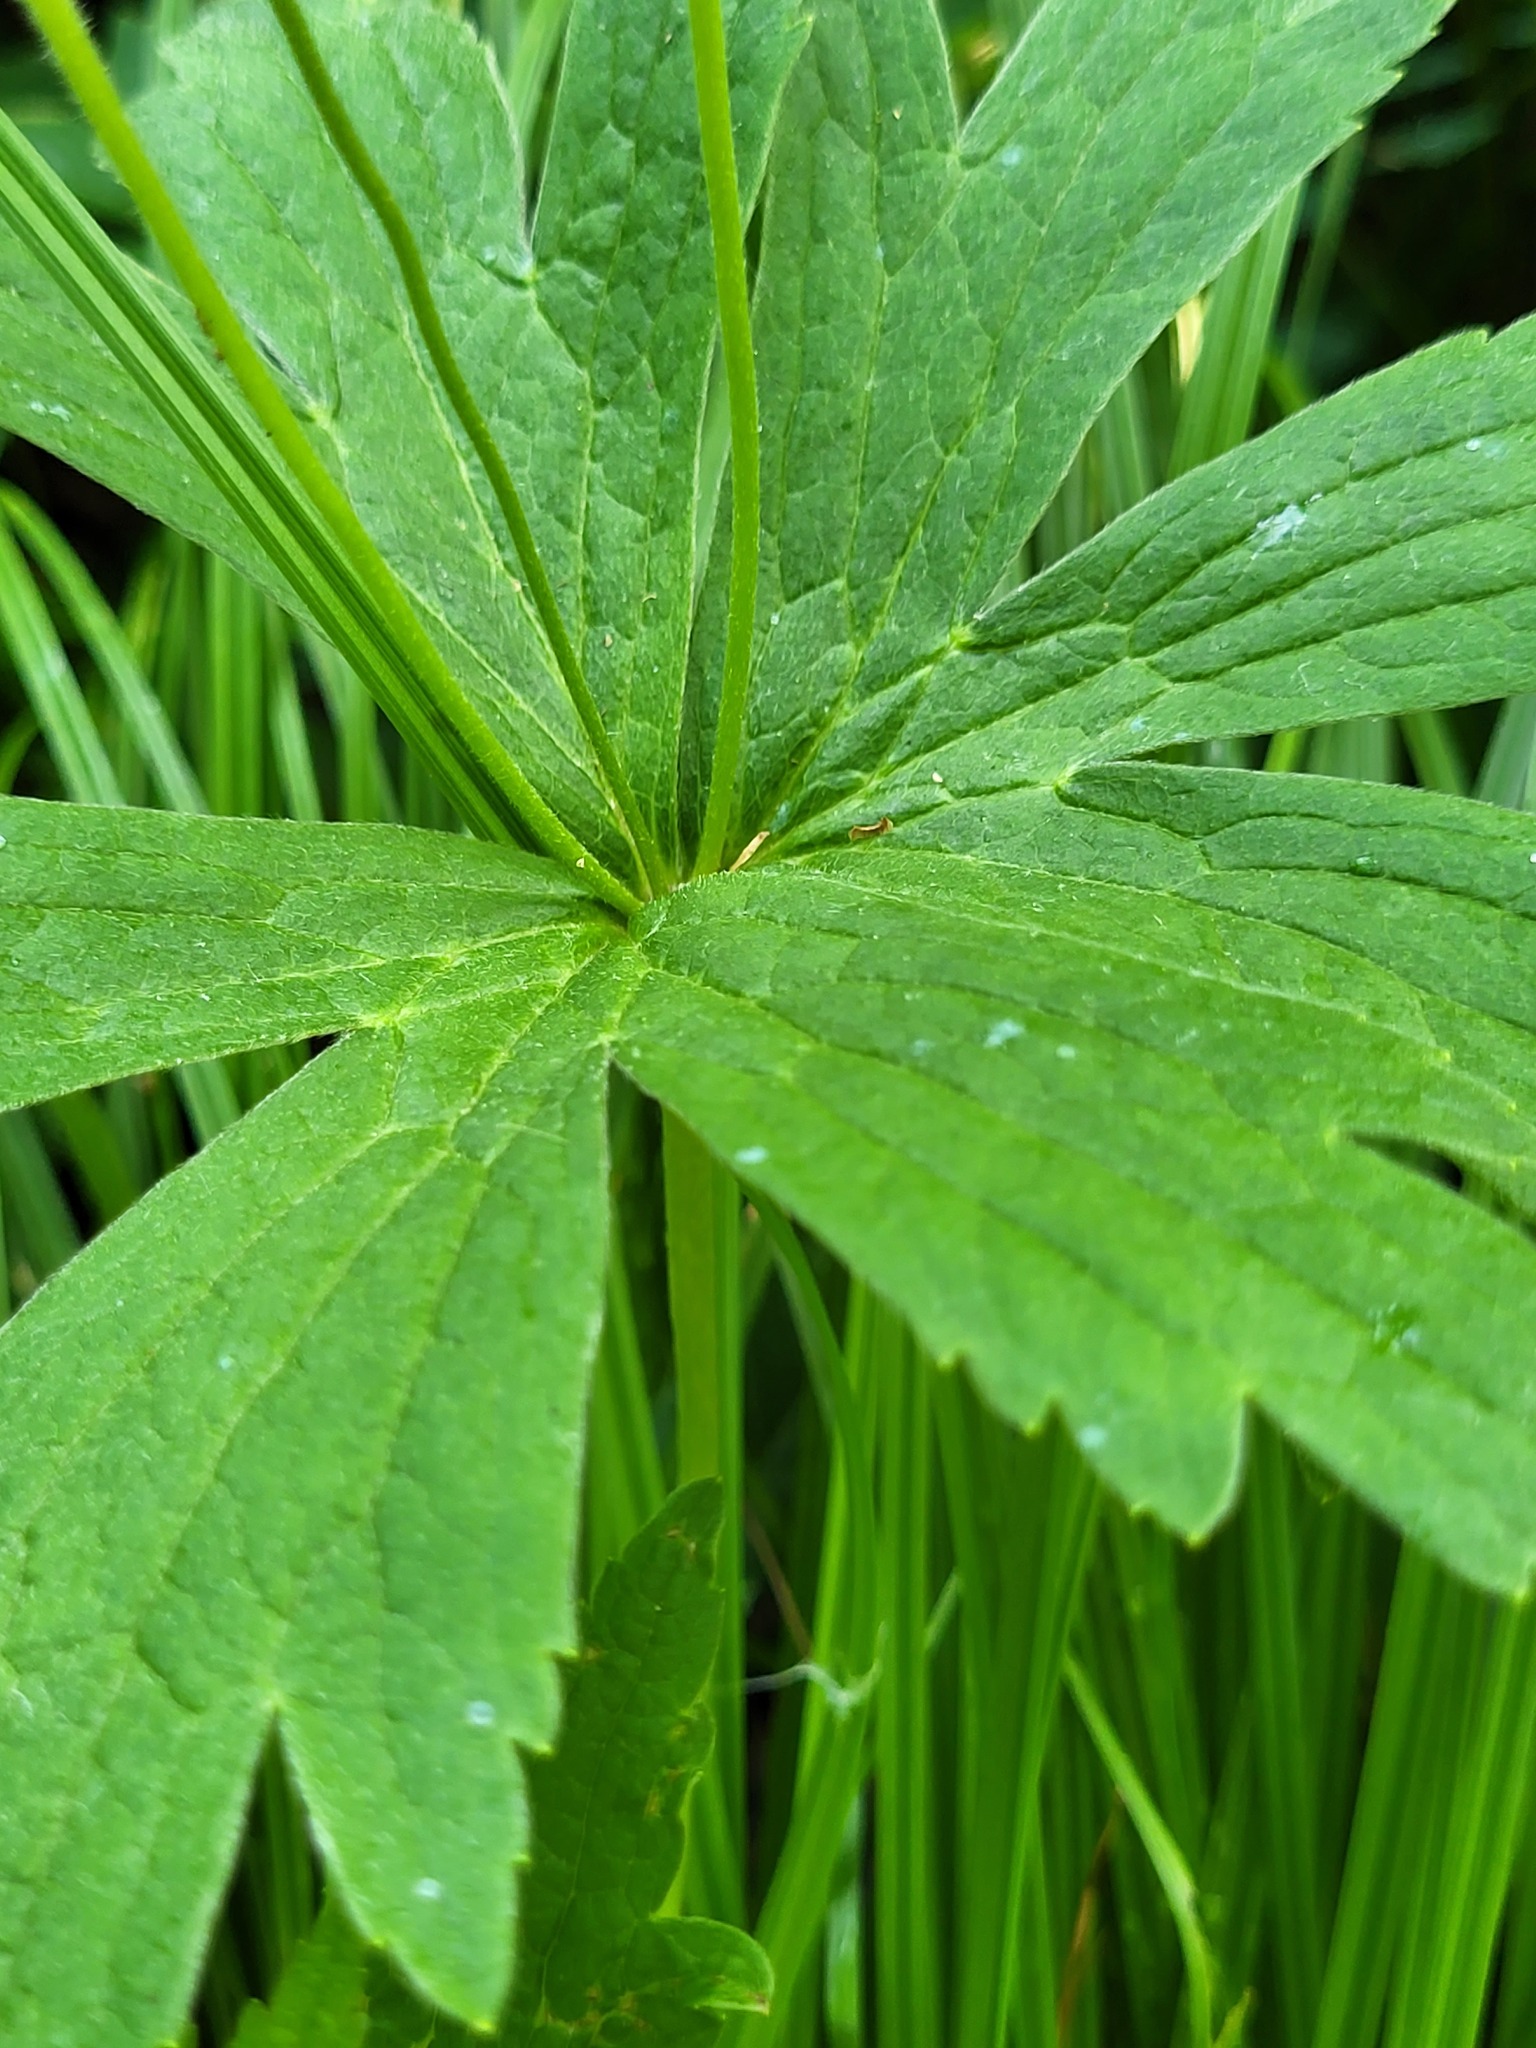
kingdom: Plantae
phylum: Tracheophyta
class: Magnoliopsida
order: Ranunculales
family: Ranunculaceae
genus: Anemonastrum
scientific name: Anemonastrum canadense
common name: Canada anemone
